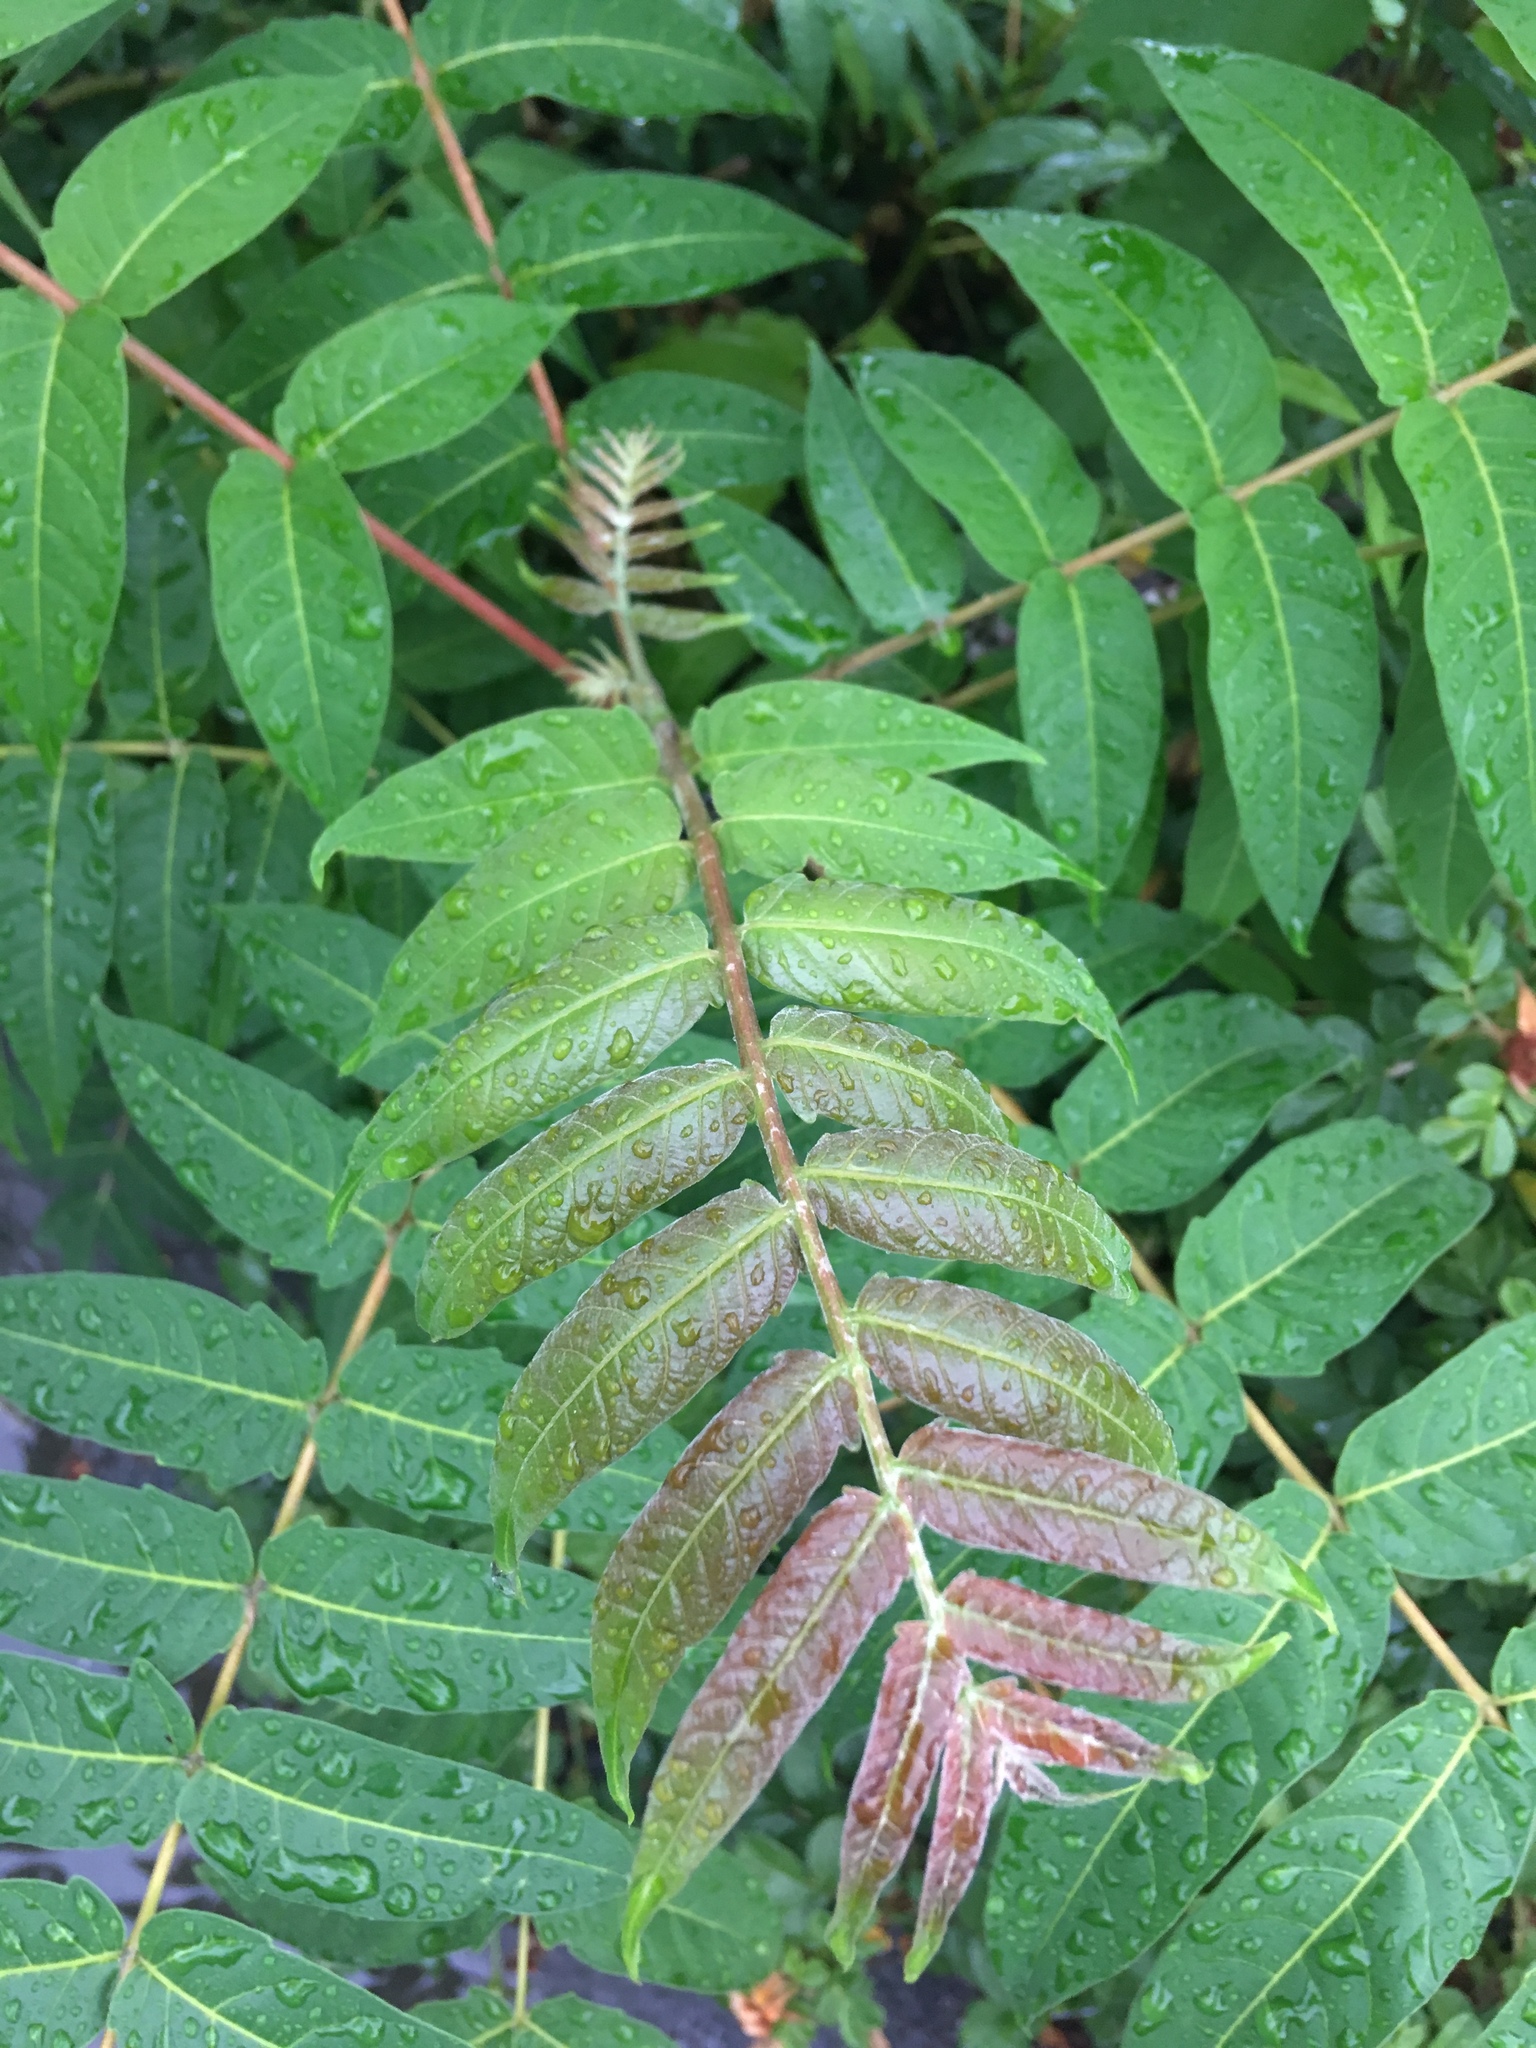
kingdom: Plantae
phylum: Tracheophyta
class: Magnoliopsida
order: Sapindales
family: Simaroubaceae
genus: Ailanthus
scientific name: Ailanthus altissima
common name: Tree-of-heaven
